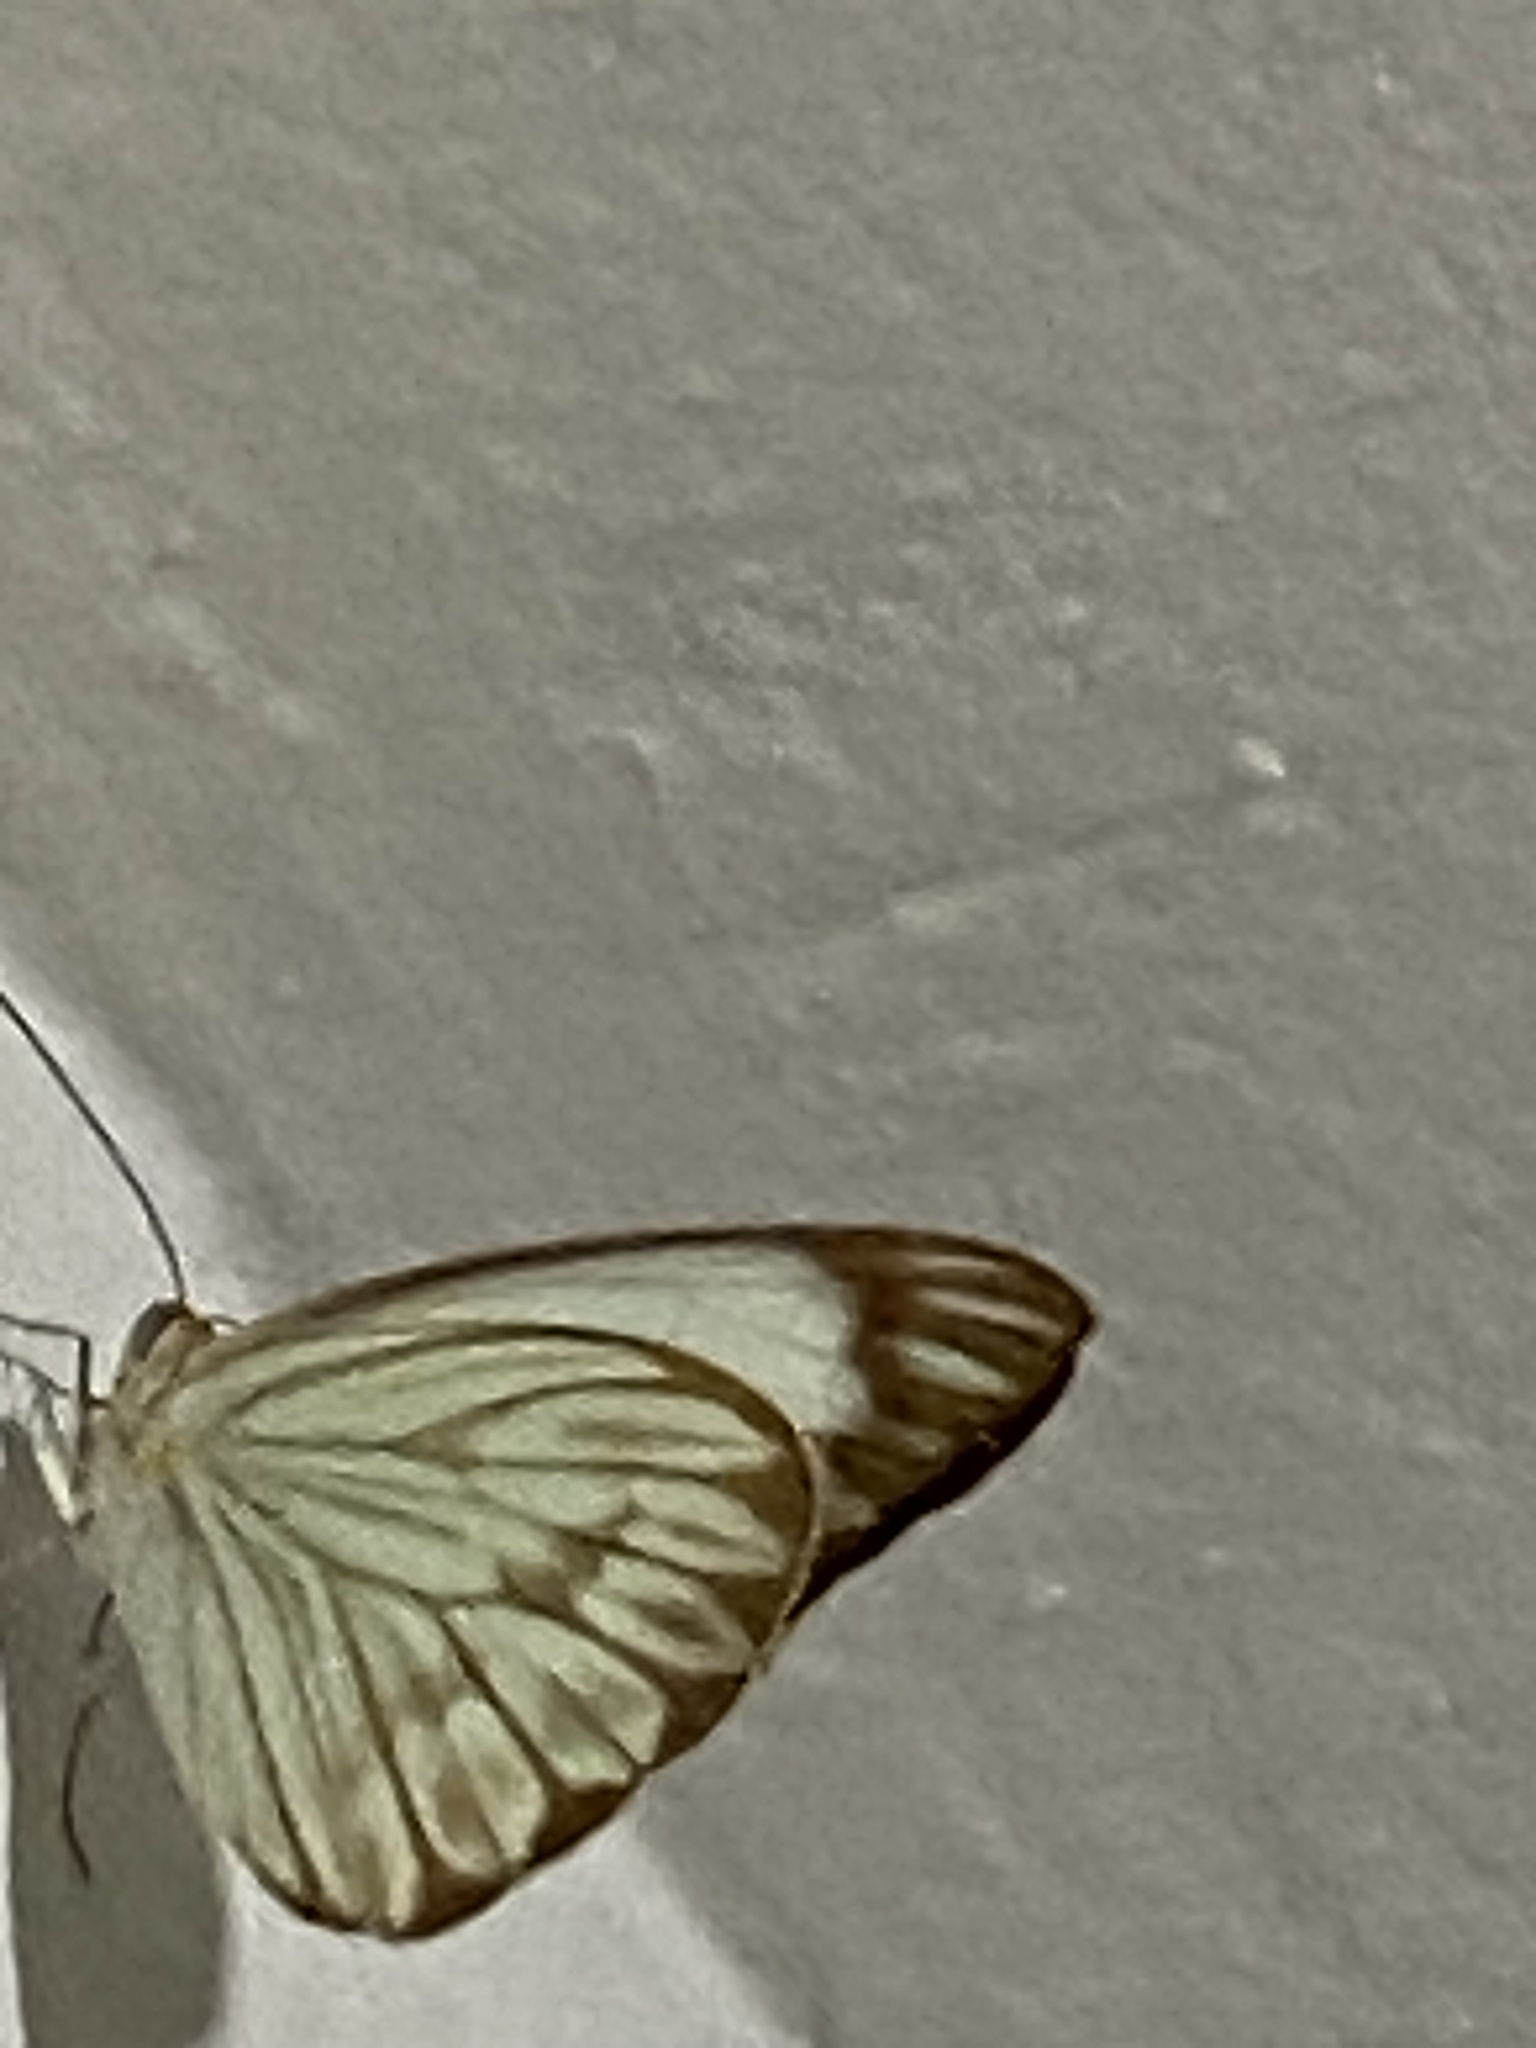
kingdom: Animalia
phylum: Arthropoda
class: Insecta
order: Lepidoptera
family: Pieridae
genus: Ascia
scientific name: Ascia monuste
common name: Great southern white
